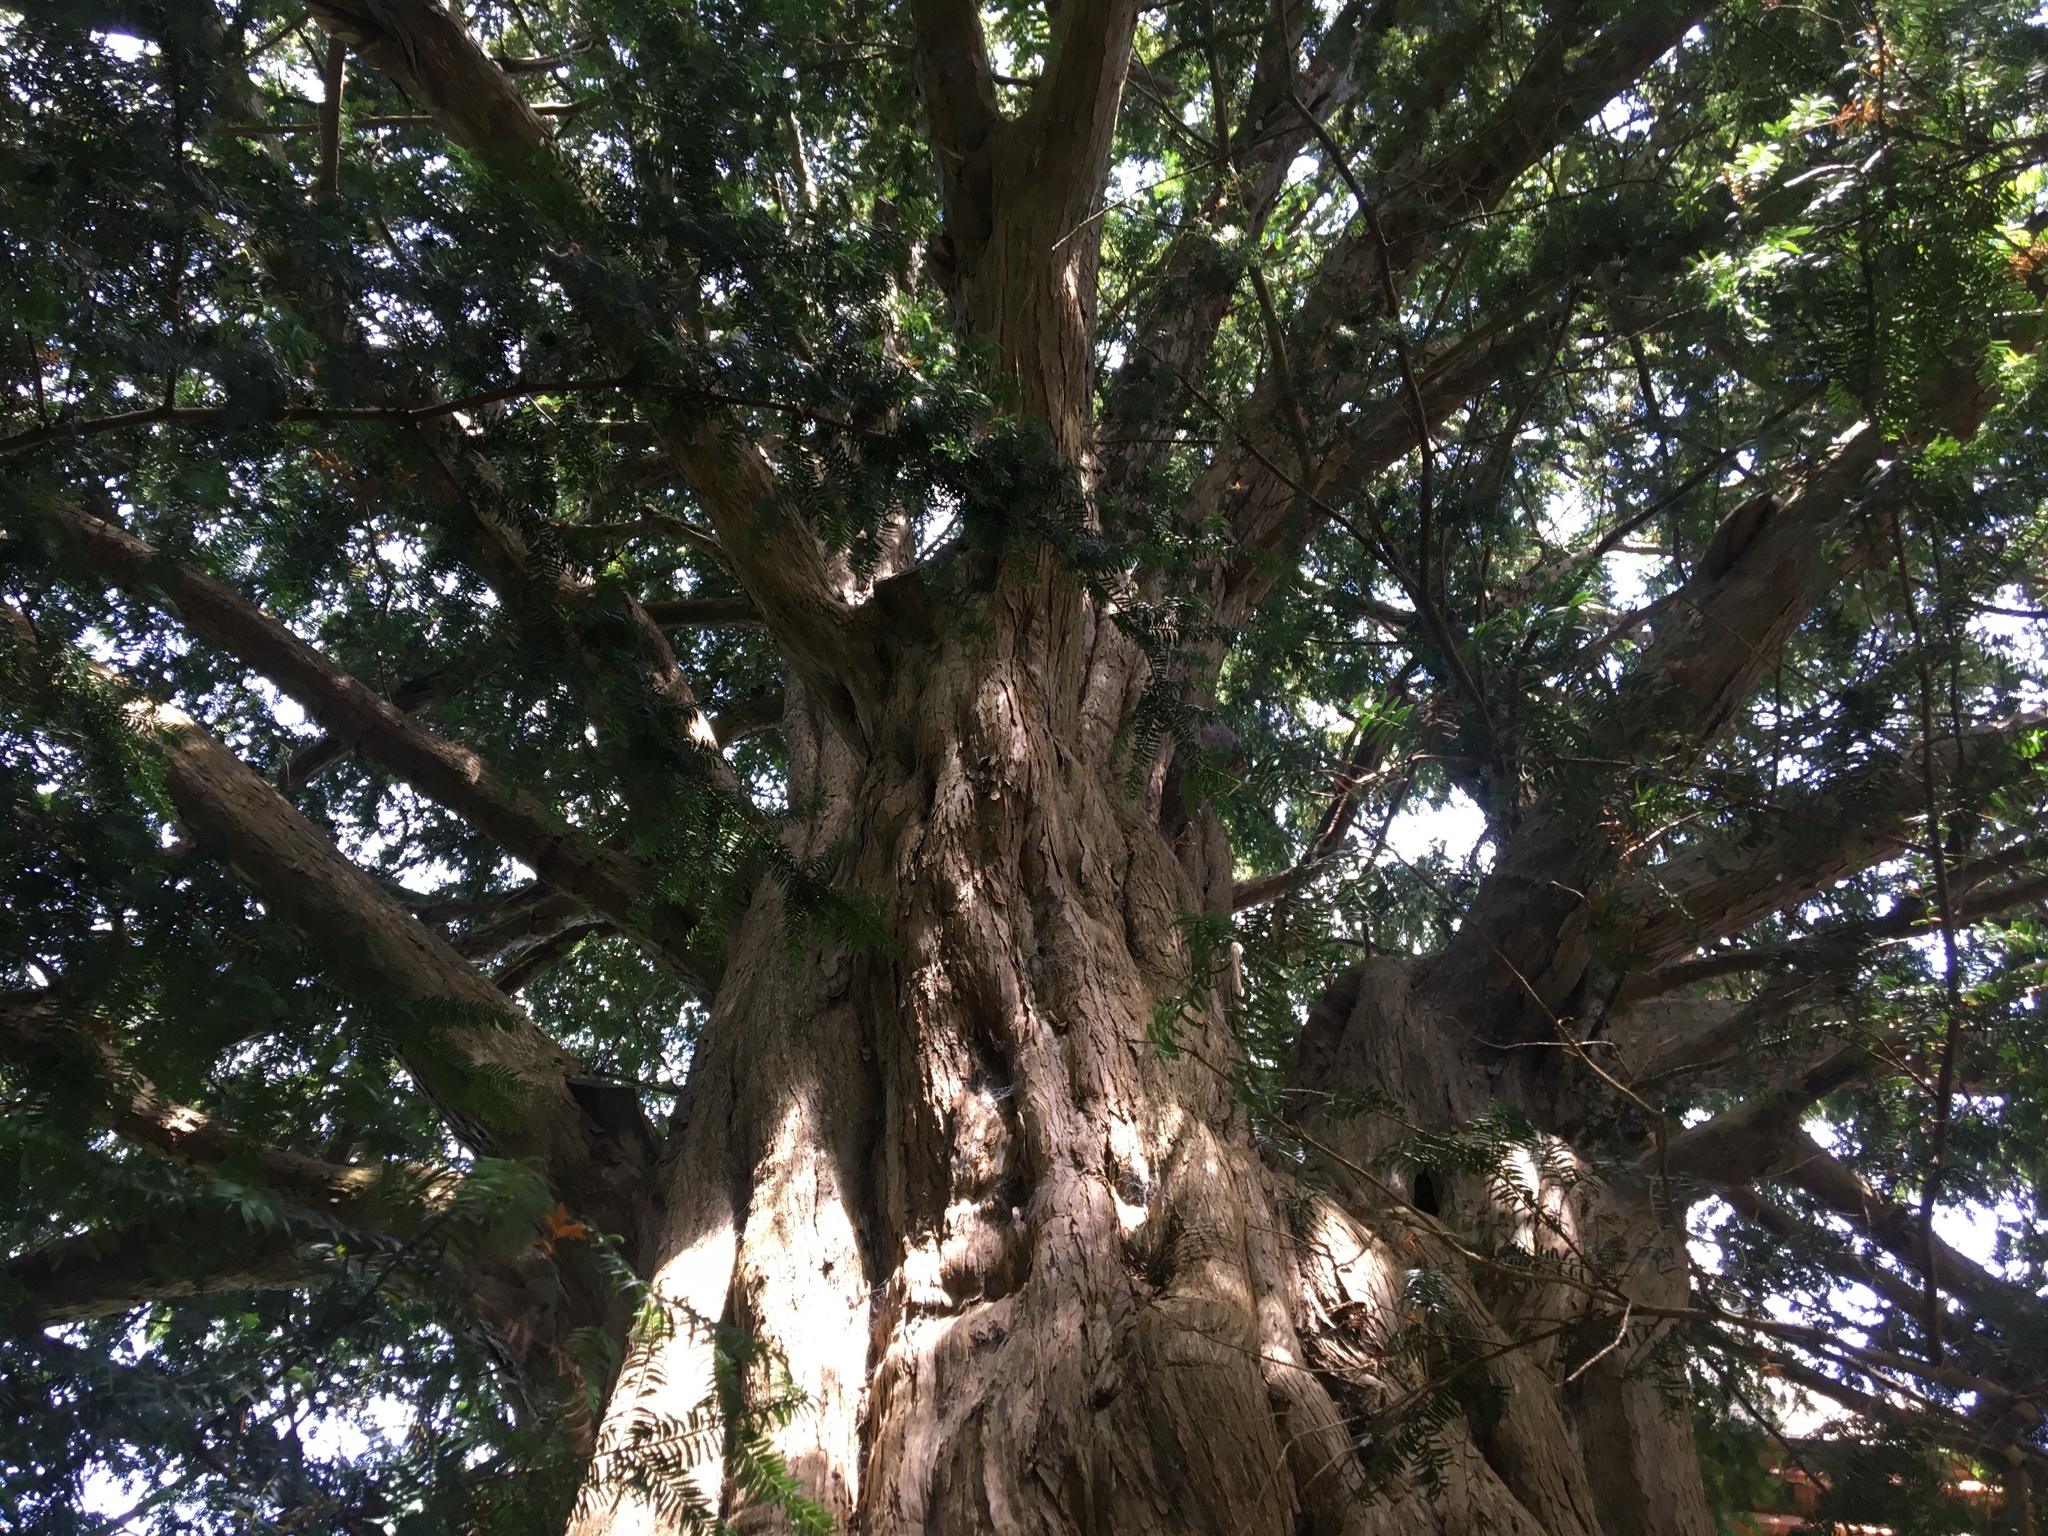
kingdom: Plantae
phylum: Tracheophyta
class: Pinopsida
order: Pinales
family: Taxaceae
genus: Taxus
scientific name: Taxus baccata
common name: Yew
